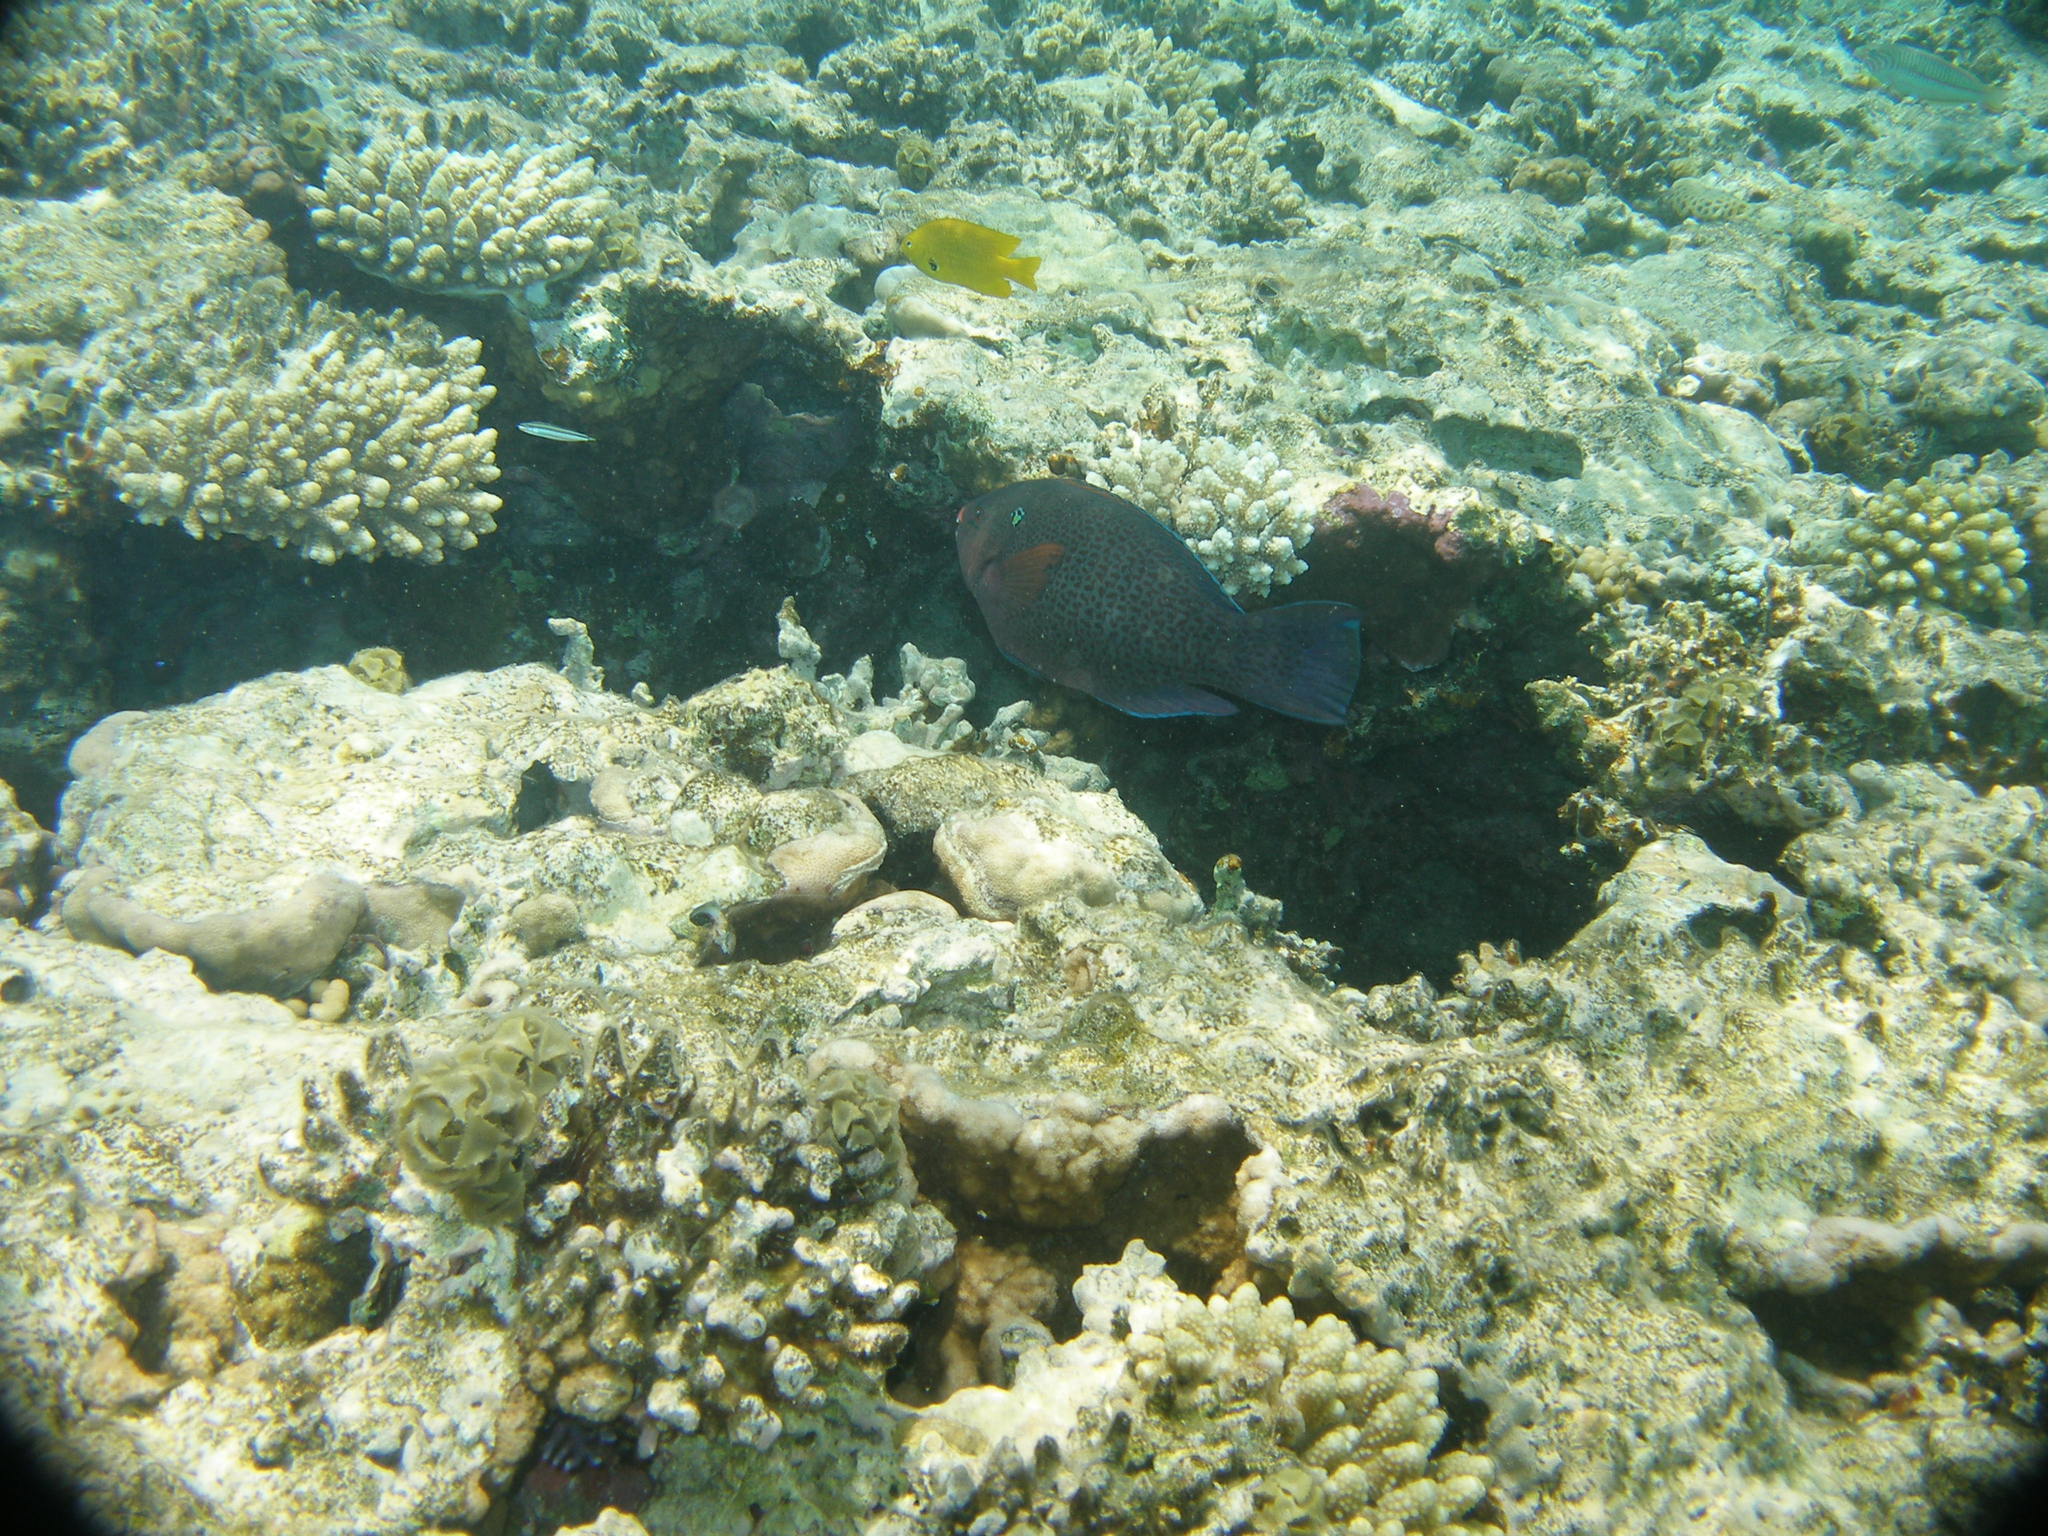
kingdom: Animalia
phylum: Chordata
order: Perciformes
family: Scaridae
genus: Scarus
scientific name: Scarus niger
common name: Dusky parrotfish
